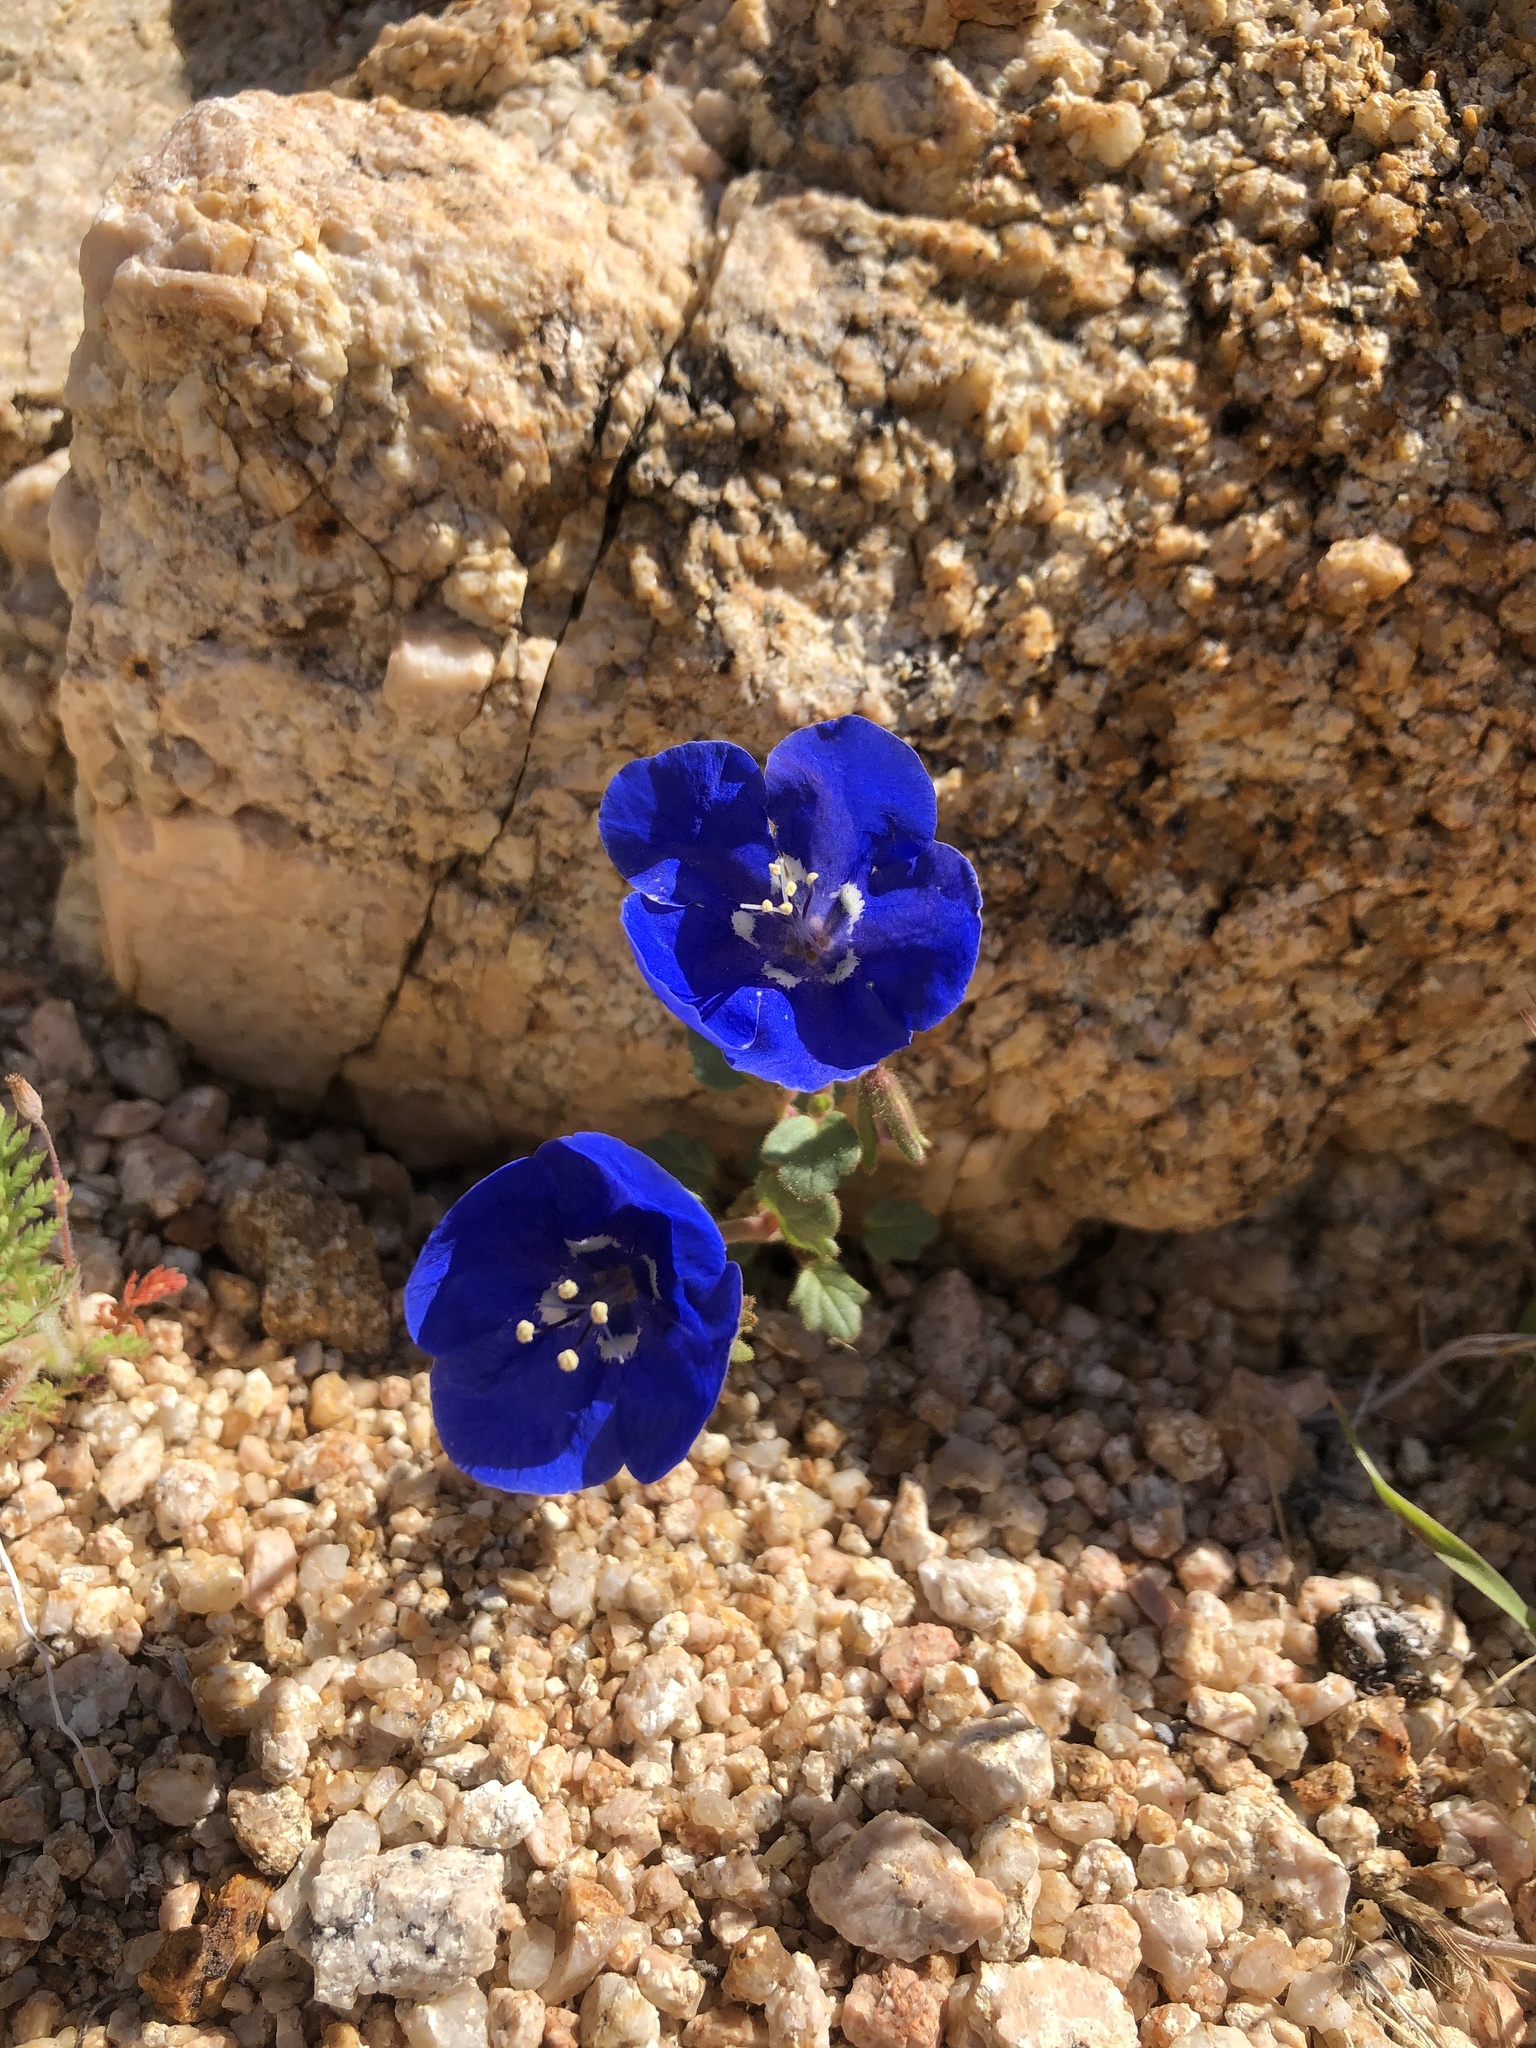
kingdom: Plantae
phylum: Tracheophyta
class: Magnoliopsida
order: Boraginales
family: Hydrophyllaceae
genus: Phacelia
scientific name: Phacelia nashiana
